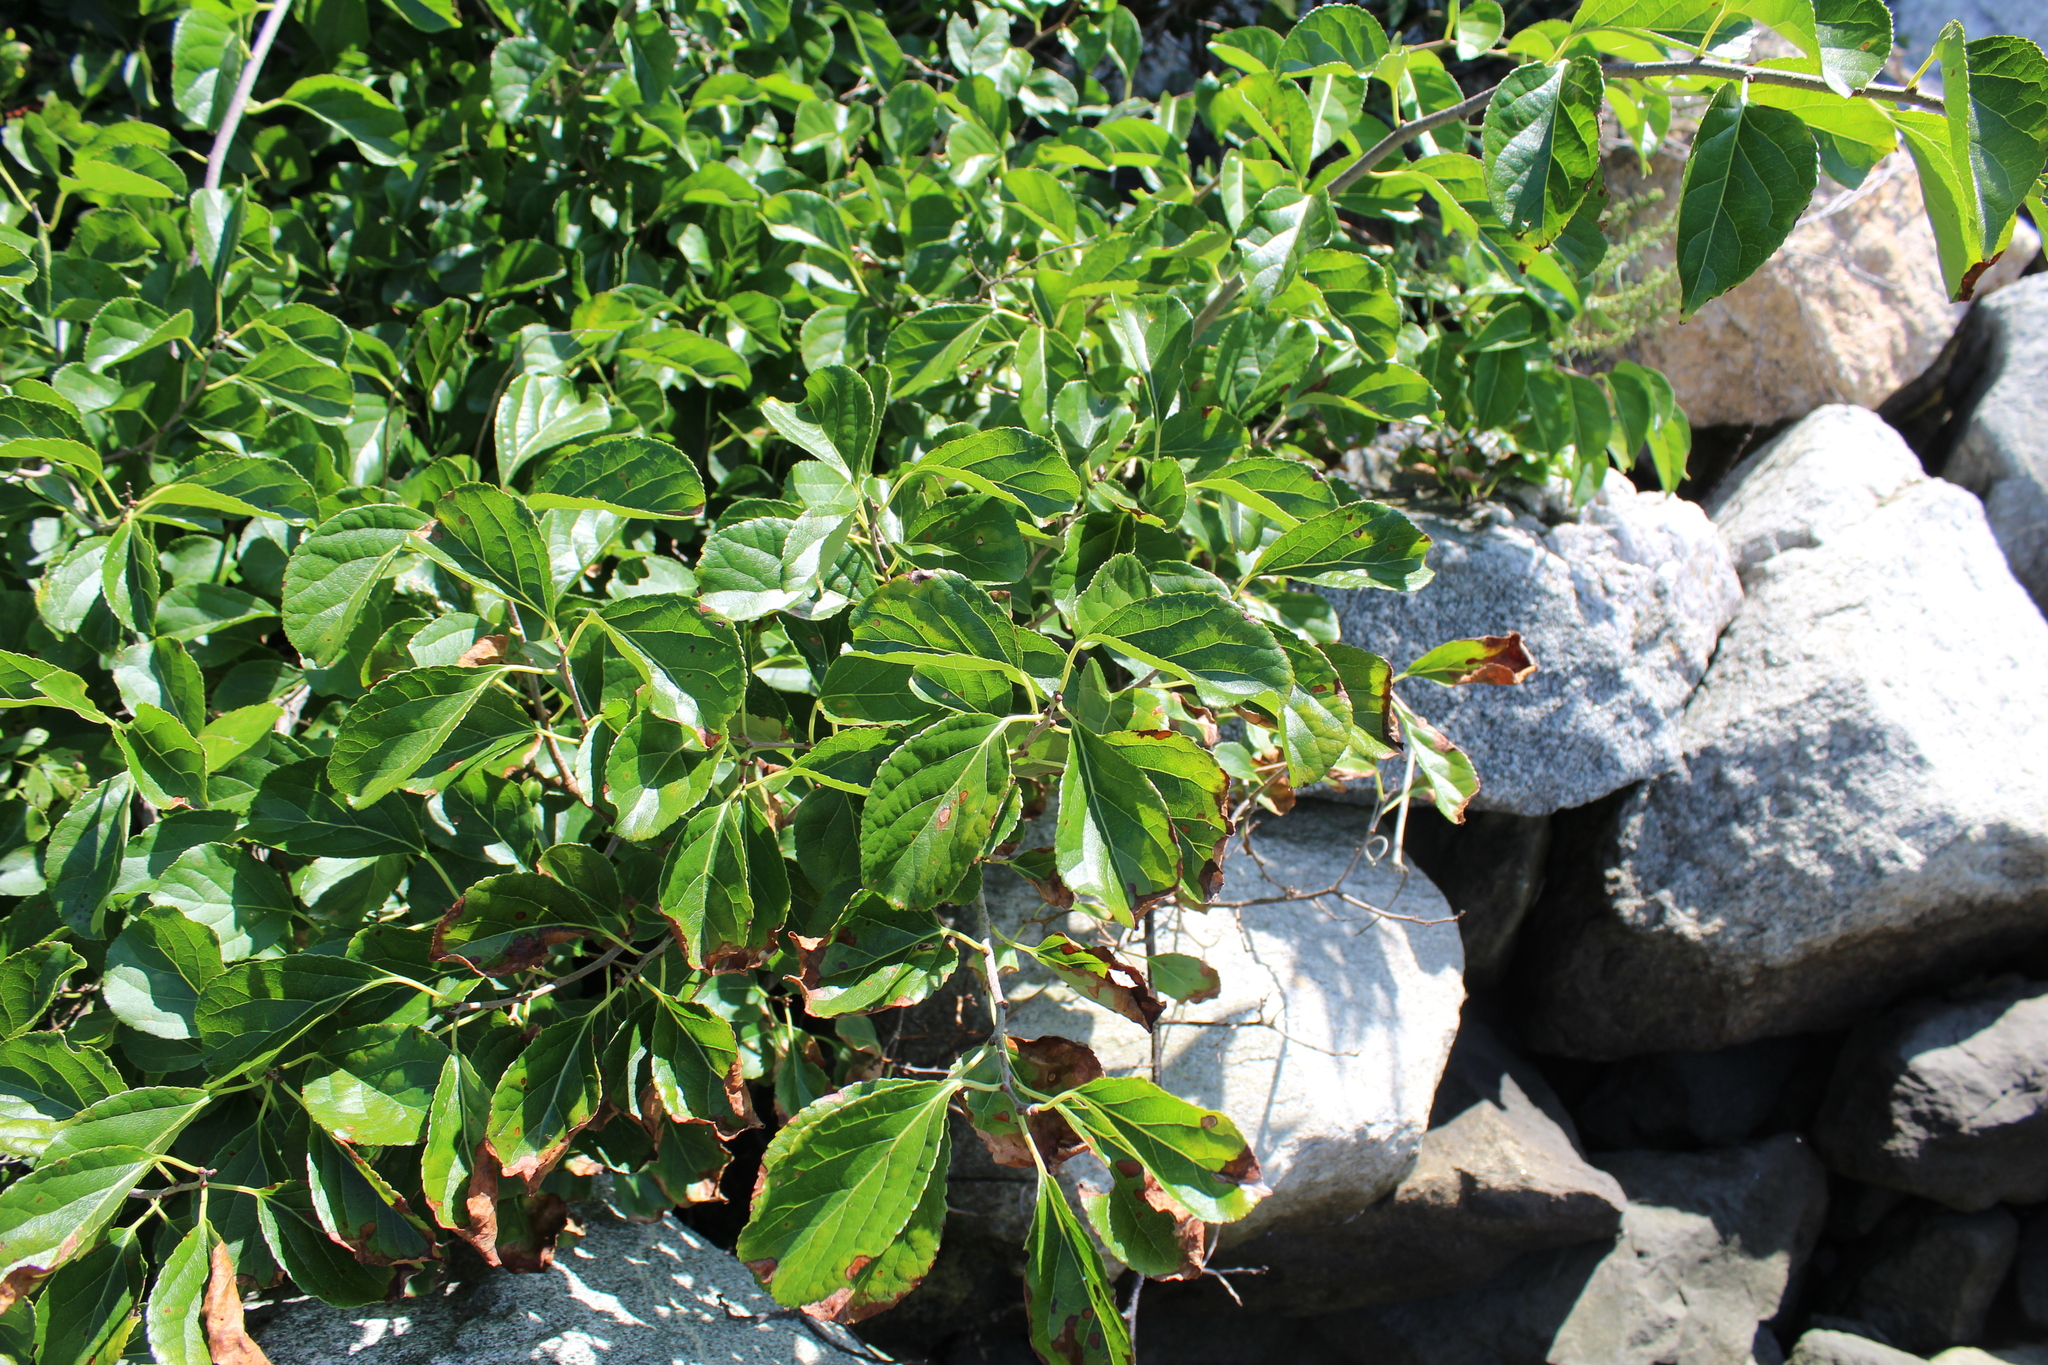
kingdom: Plantae
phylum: Tracheophyta
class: Magnoliopsida
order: Celastrales
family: Celastraceae
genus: Celastrus
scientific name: Celastrus orbiculatus
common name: Oriental bittersweet
